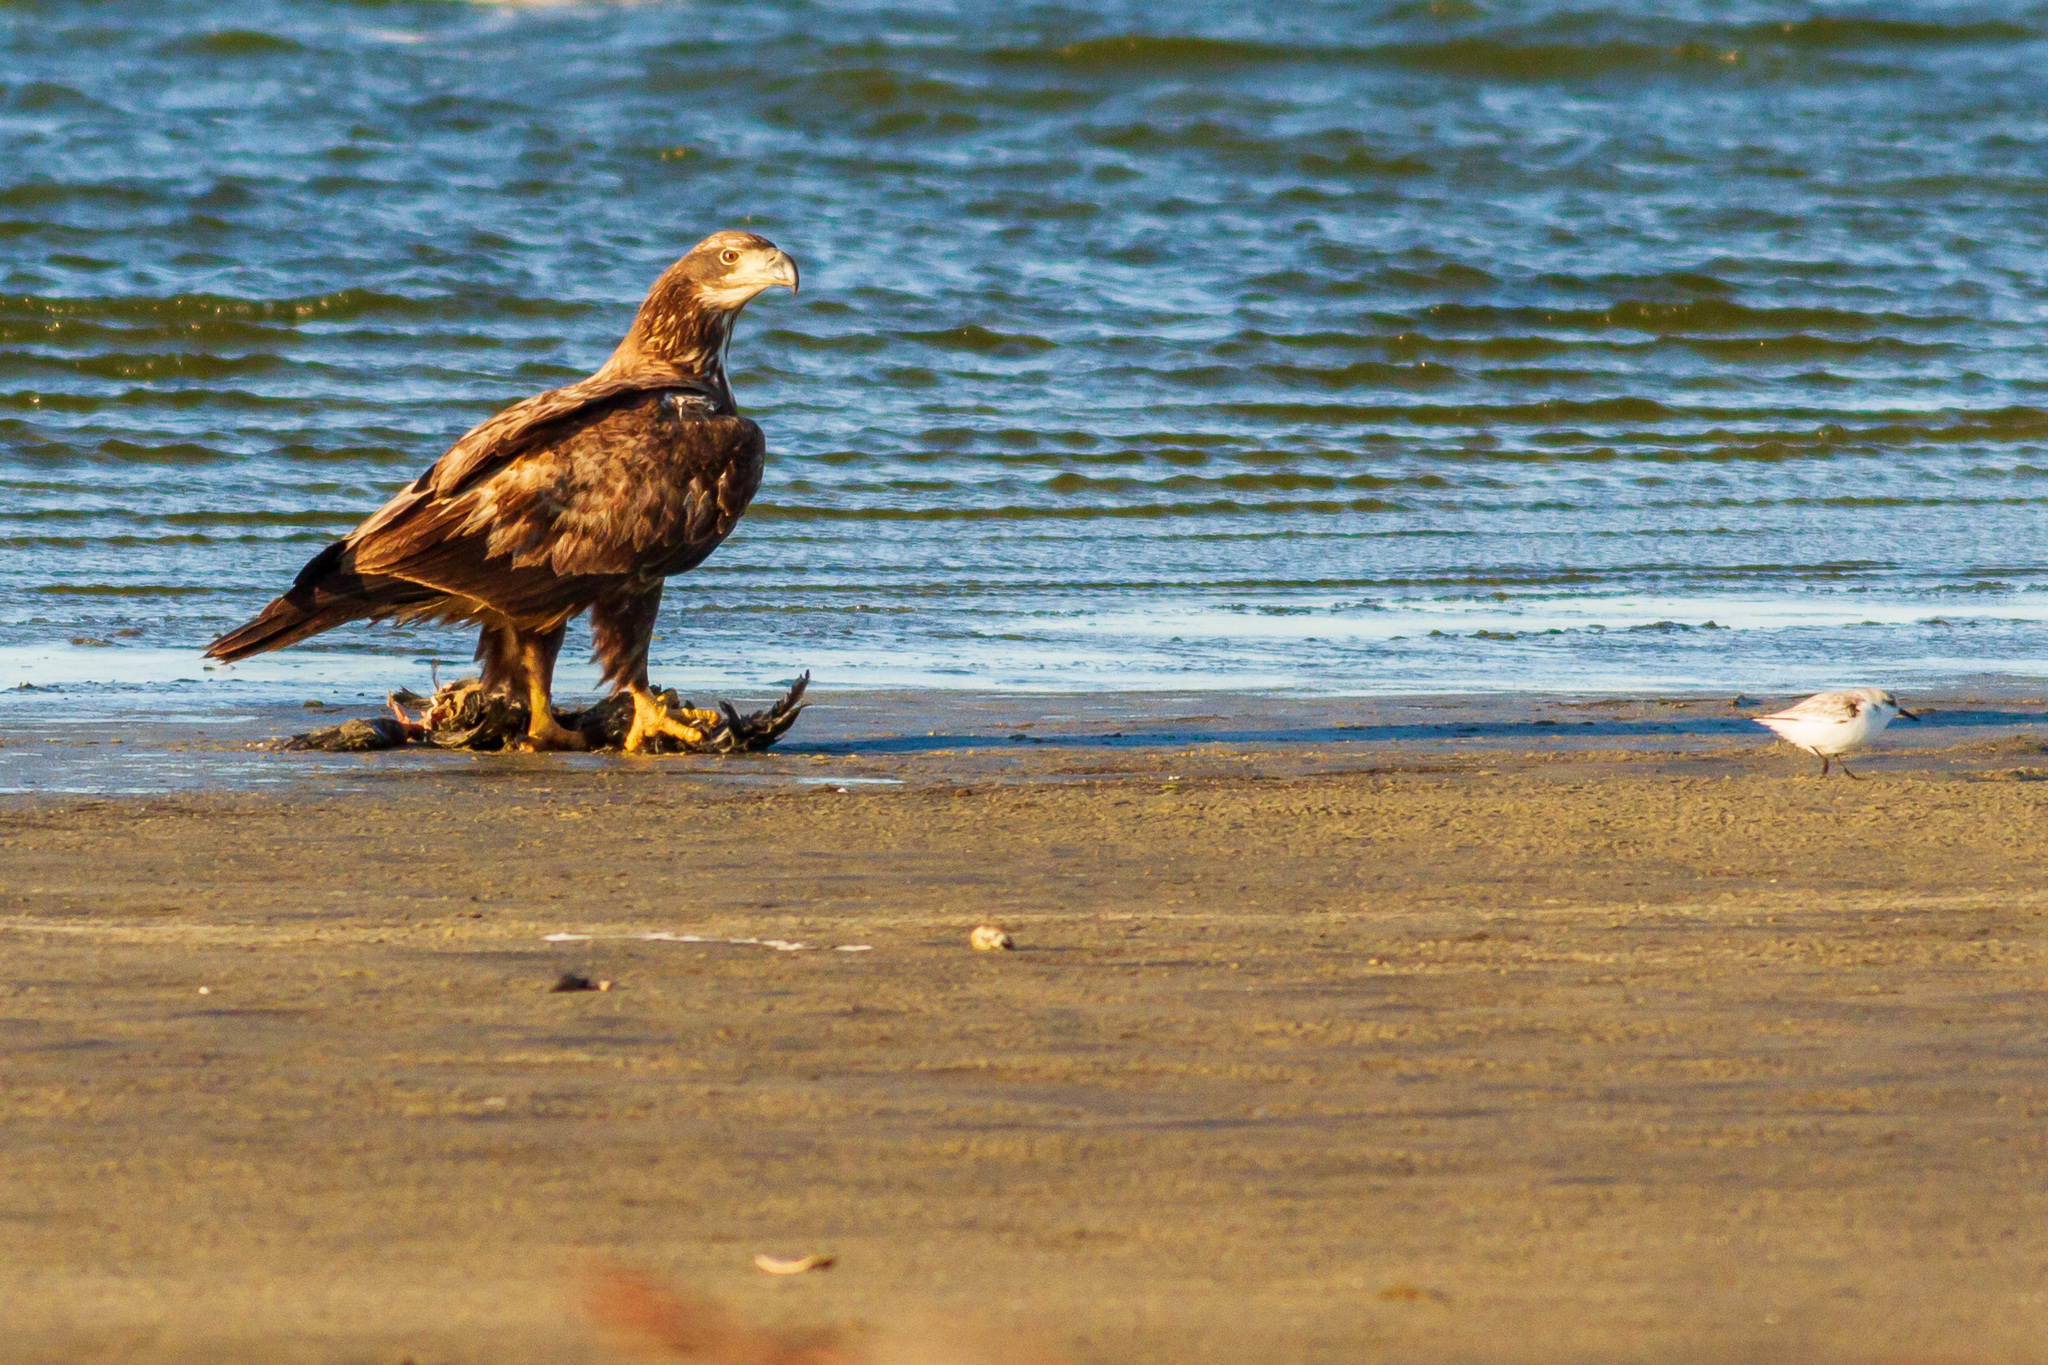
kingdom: Animalia
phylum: Chordata
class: Aves
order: Accipitriformes
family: Accipitridae
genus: Haliaeetus
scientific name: Haliaeetus leucocephalus
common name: Bald eagle
